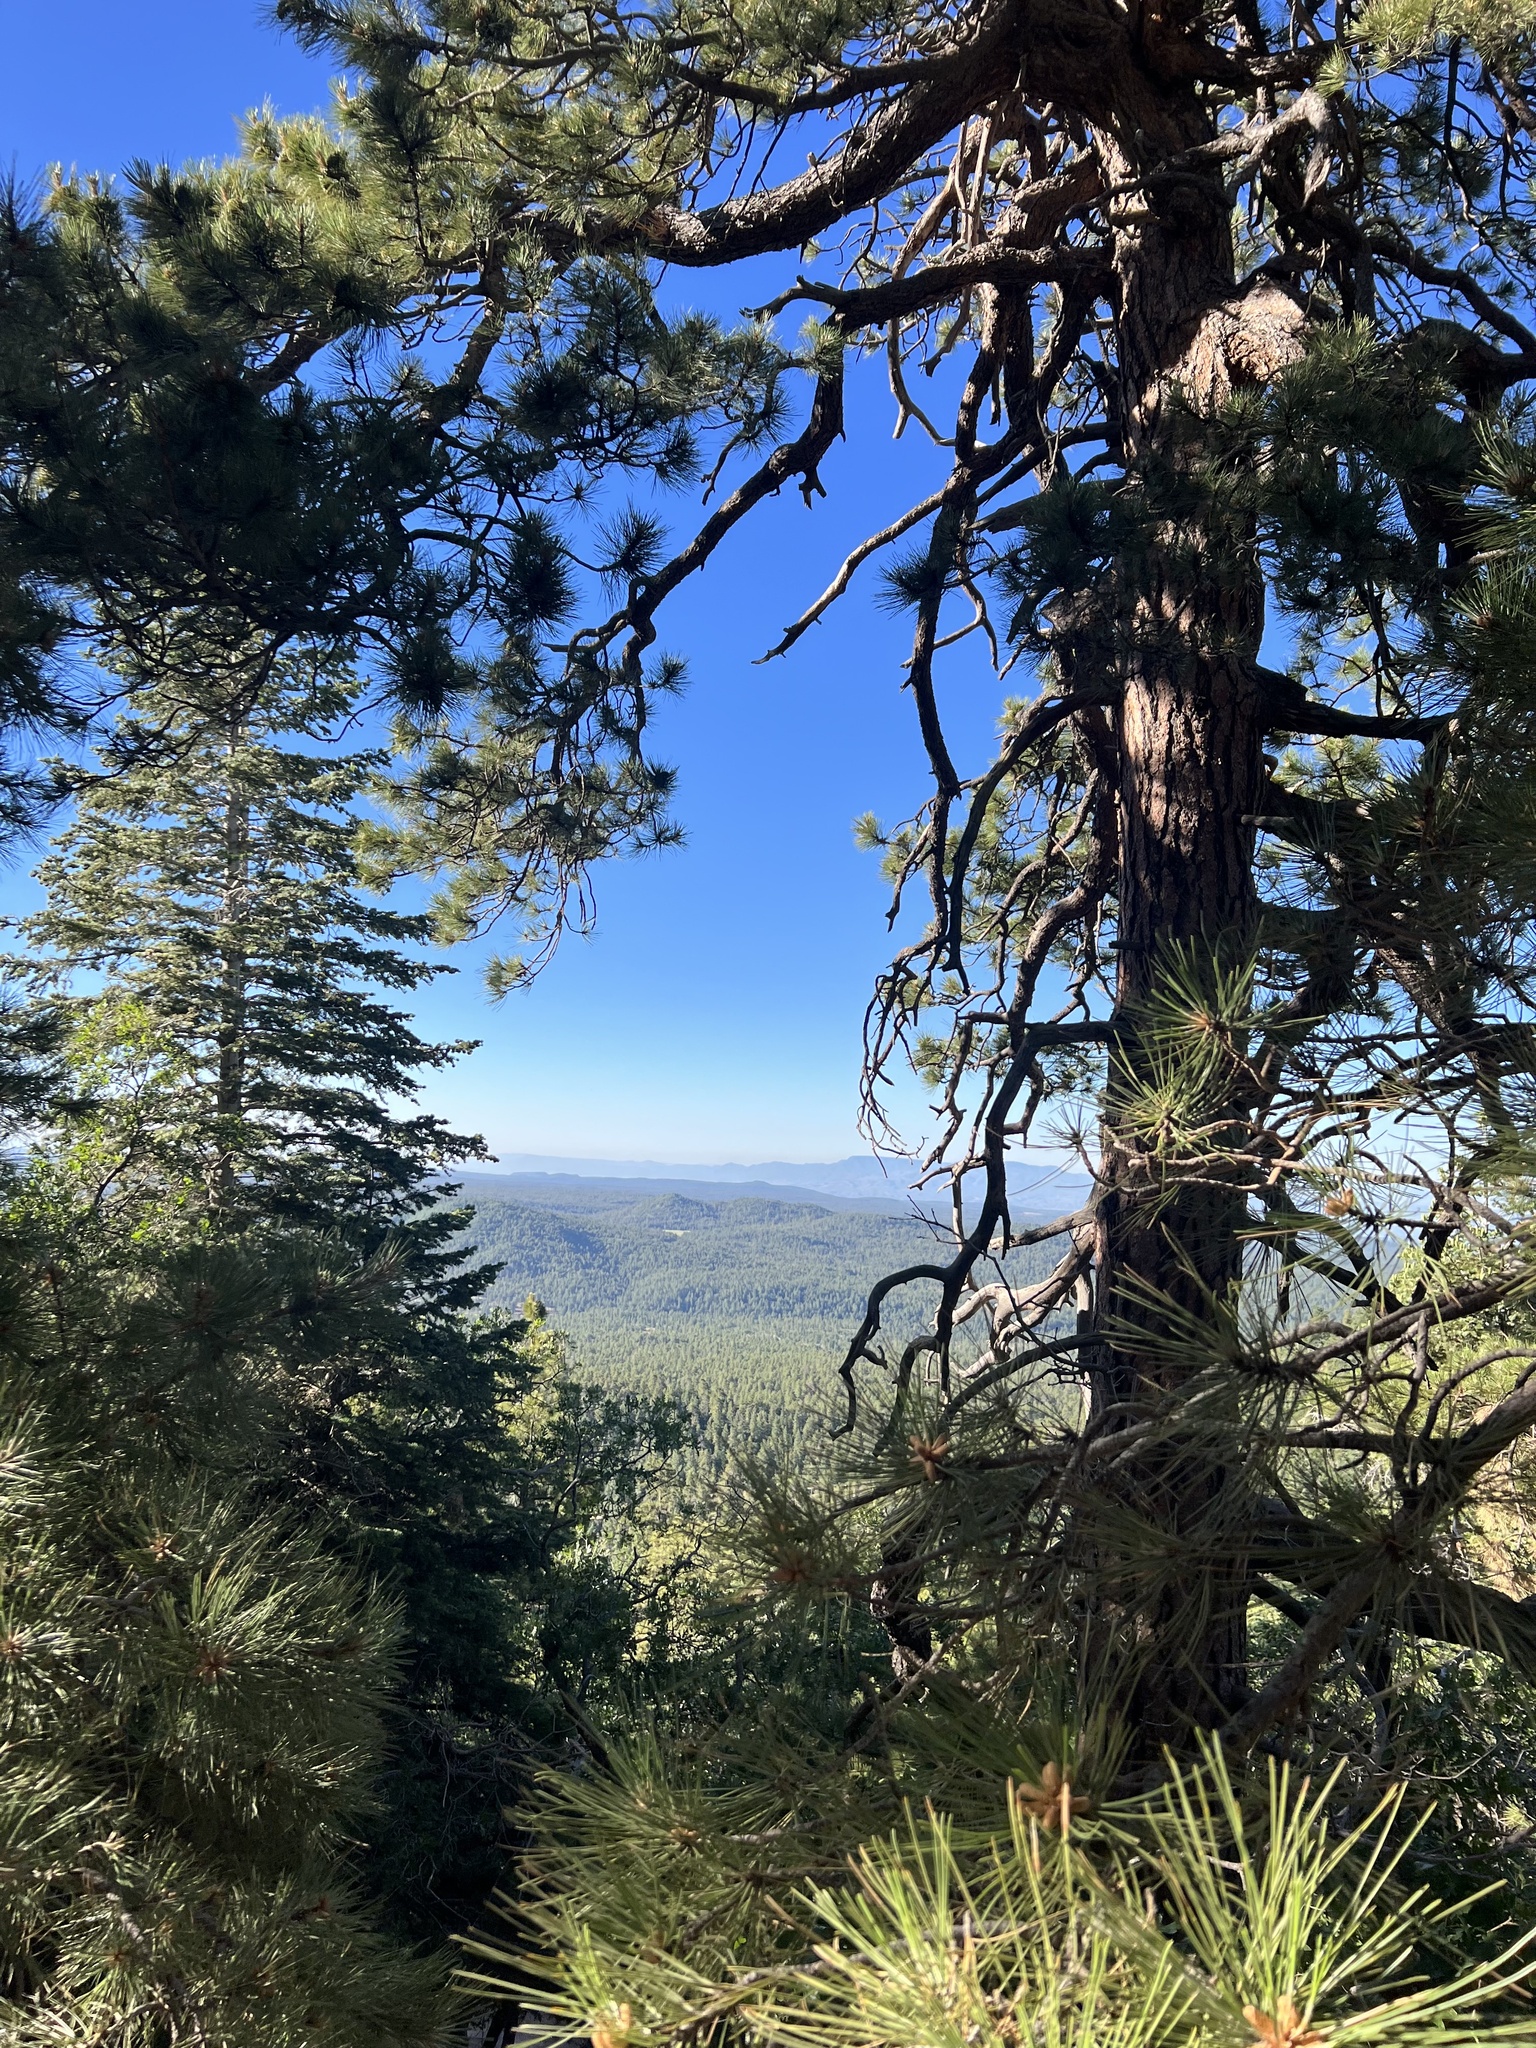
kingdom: Plantae
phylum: Tracheophyta
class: Pinopsida
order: Pinales
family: Pinaceae
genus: Pinus
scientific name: Pinus ponderosa
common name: Western yellow-pine
